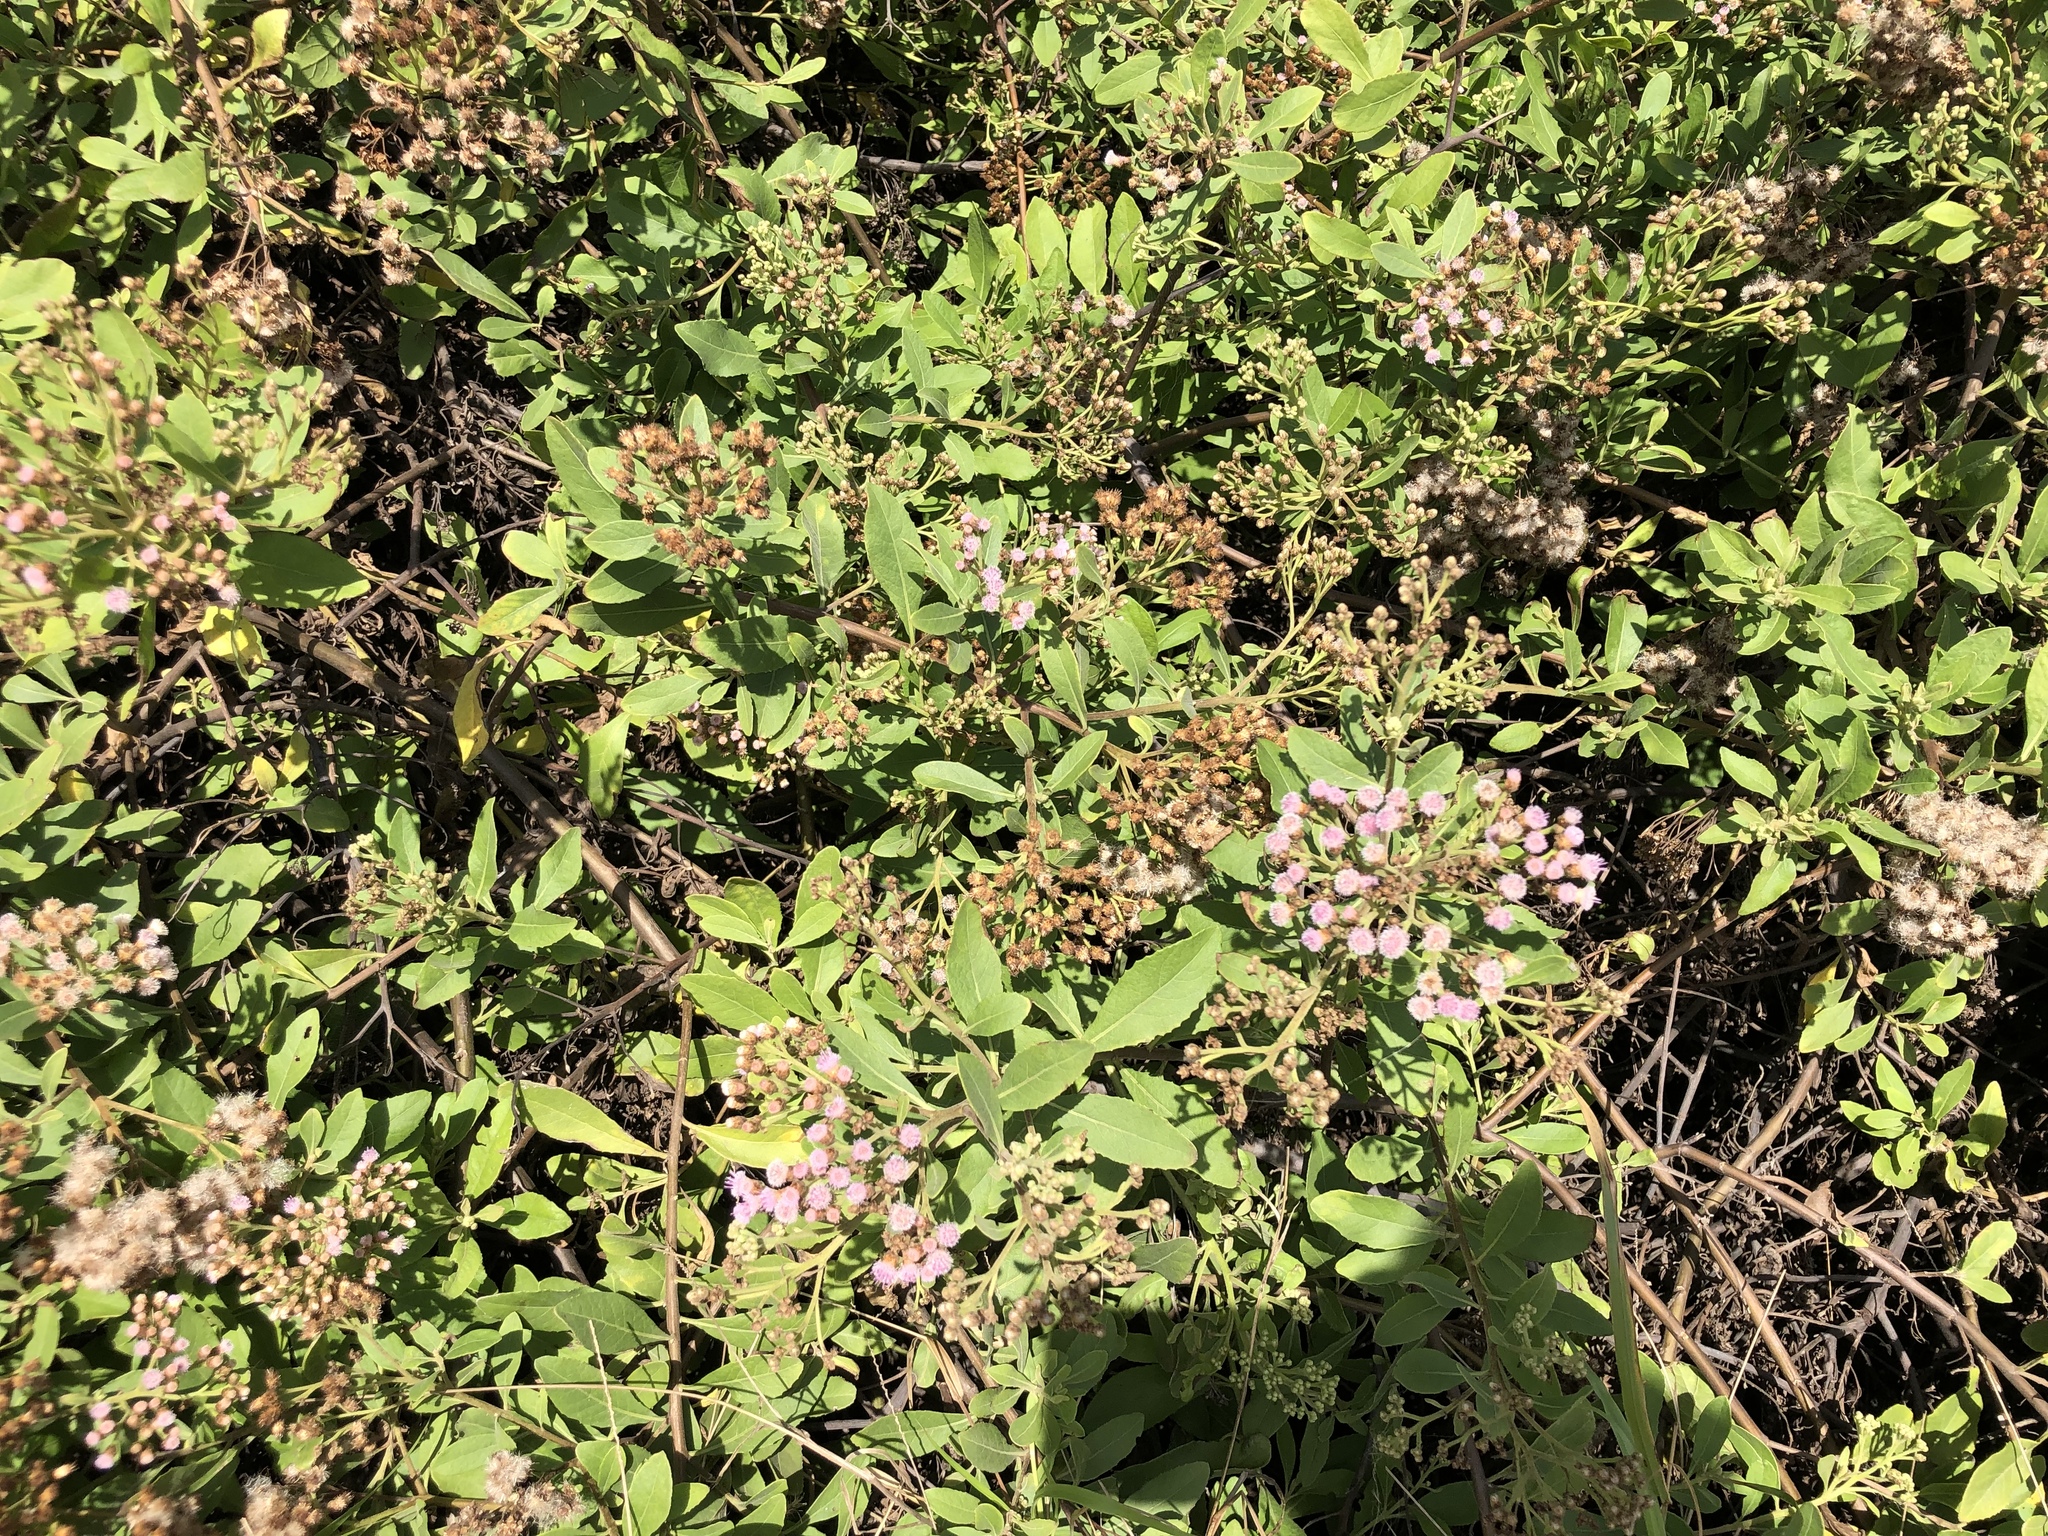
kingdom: Plantae
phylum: Tracheophyta
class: Magnoliopsida
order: Asterales
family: Asteraceae
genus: Pluchea
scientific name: Pluchea carolinensis
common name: Marsh fleabane
